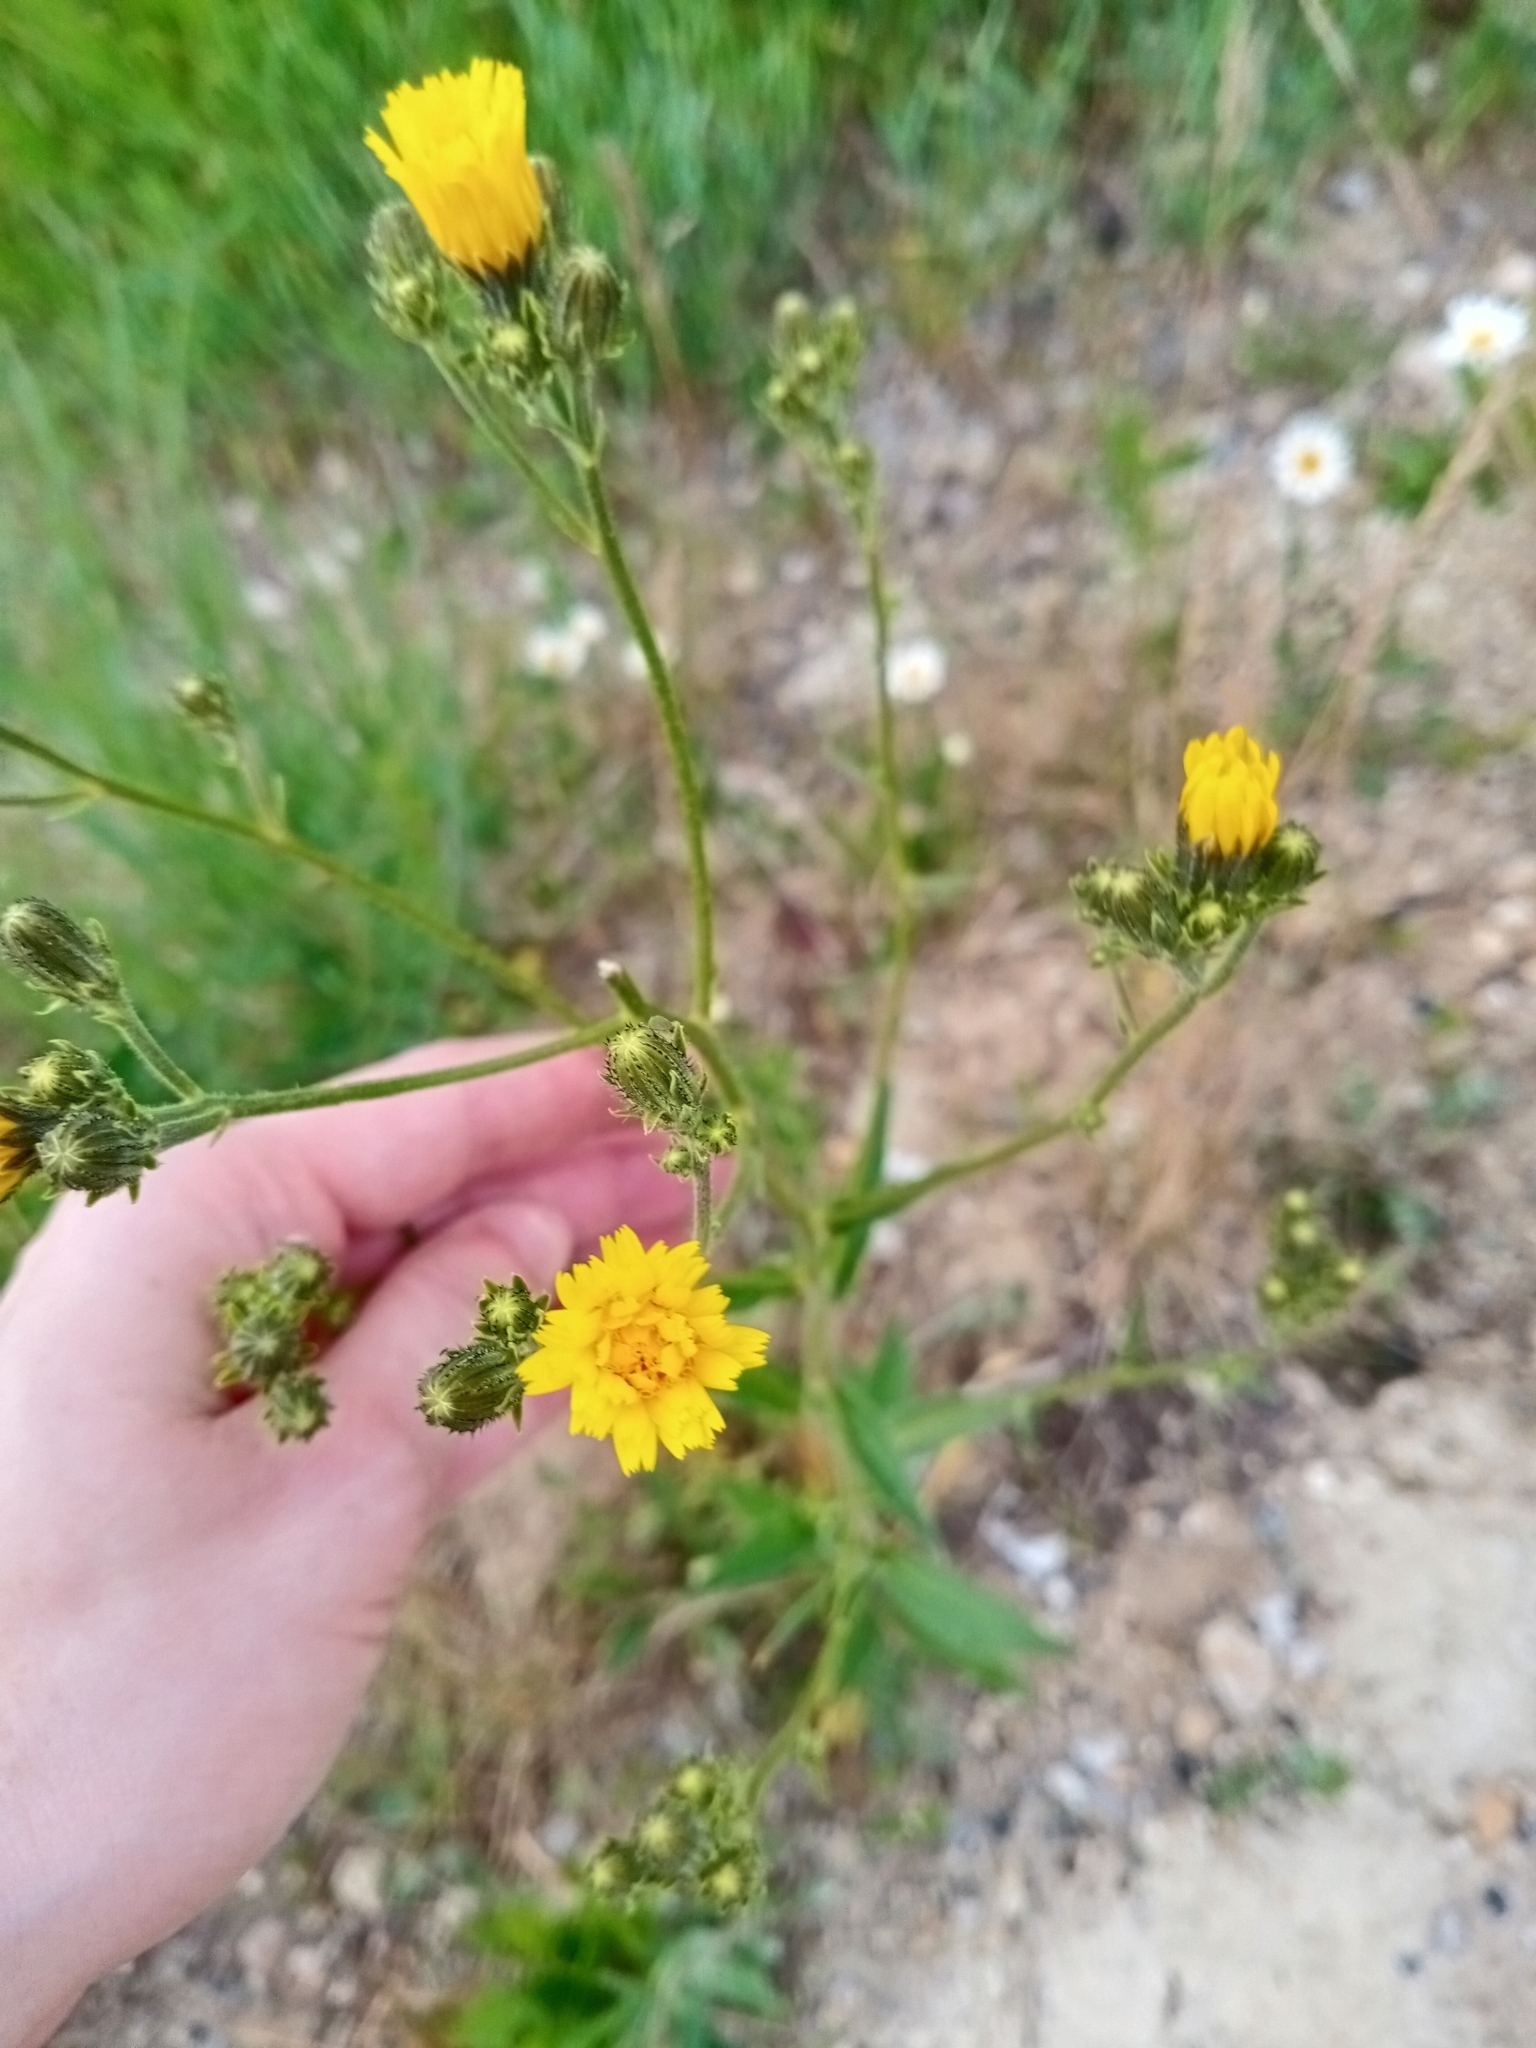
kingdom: Plantae
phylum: Tracheophyta
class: Magnoliopsida
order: Asterales
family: Asteraceae
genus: Picris
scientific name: Picris hieracioides
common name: Hawkweed oxtongue
